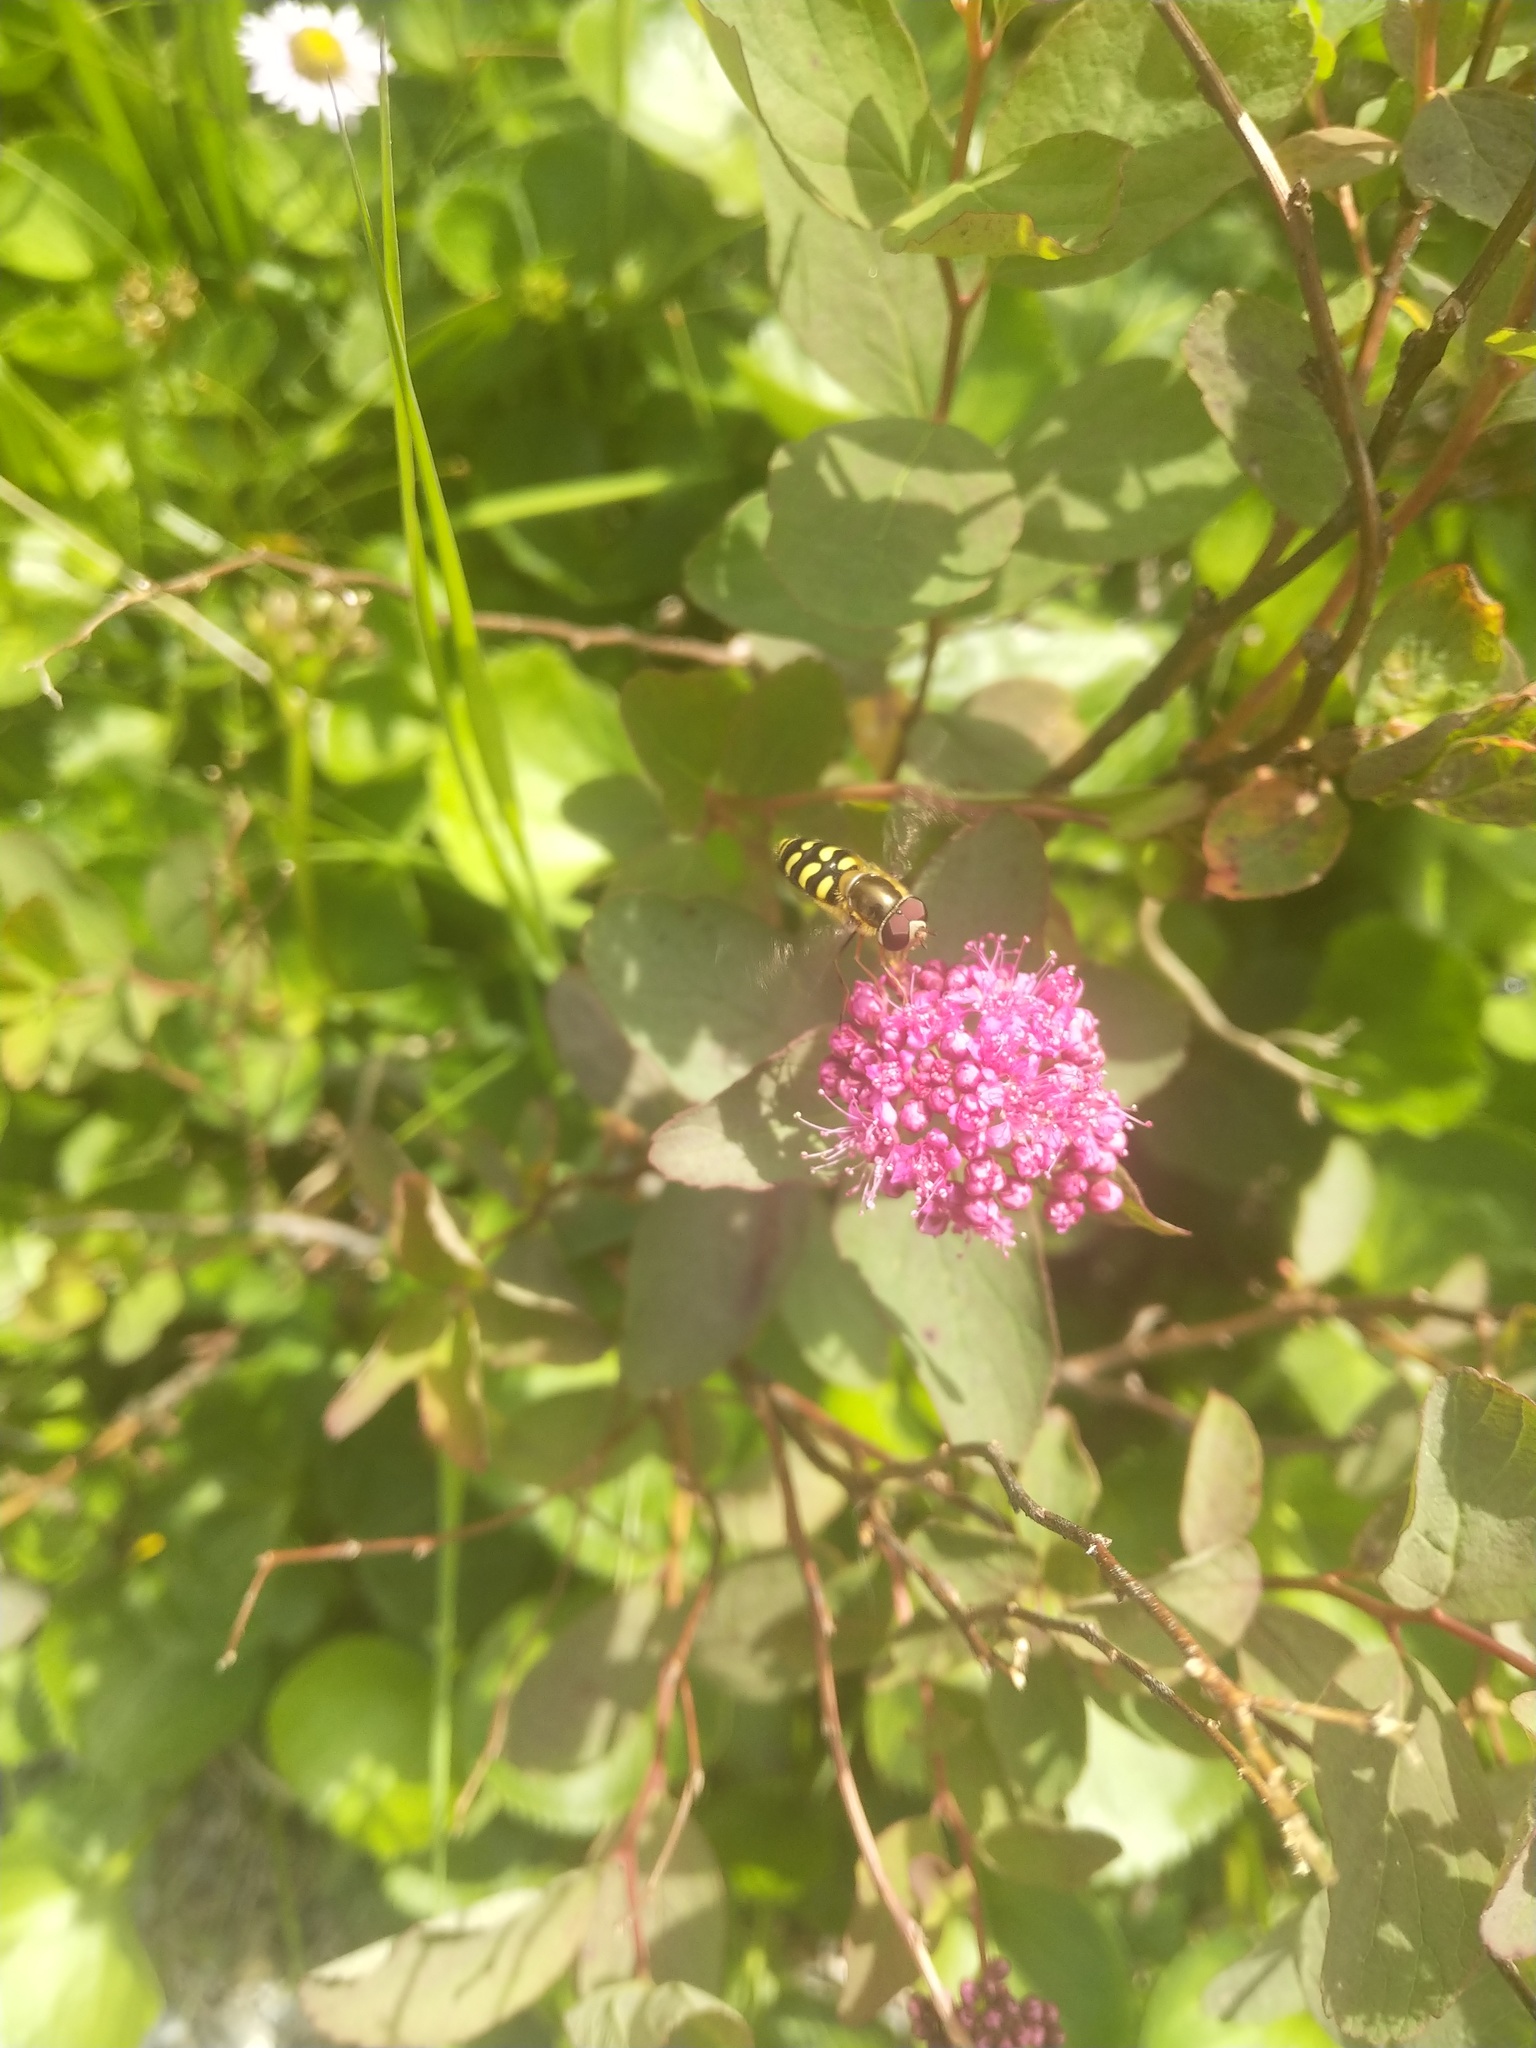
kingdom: Animalia
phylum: Arthropoda
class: Insecta
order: Diptera
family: Syrphidae
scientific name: Syrphidae
